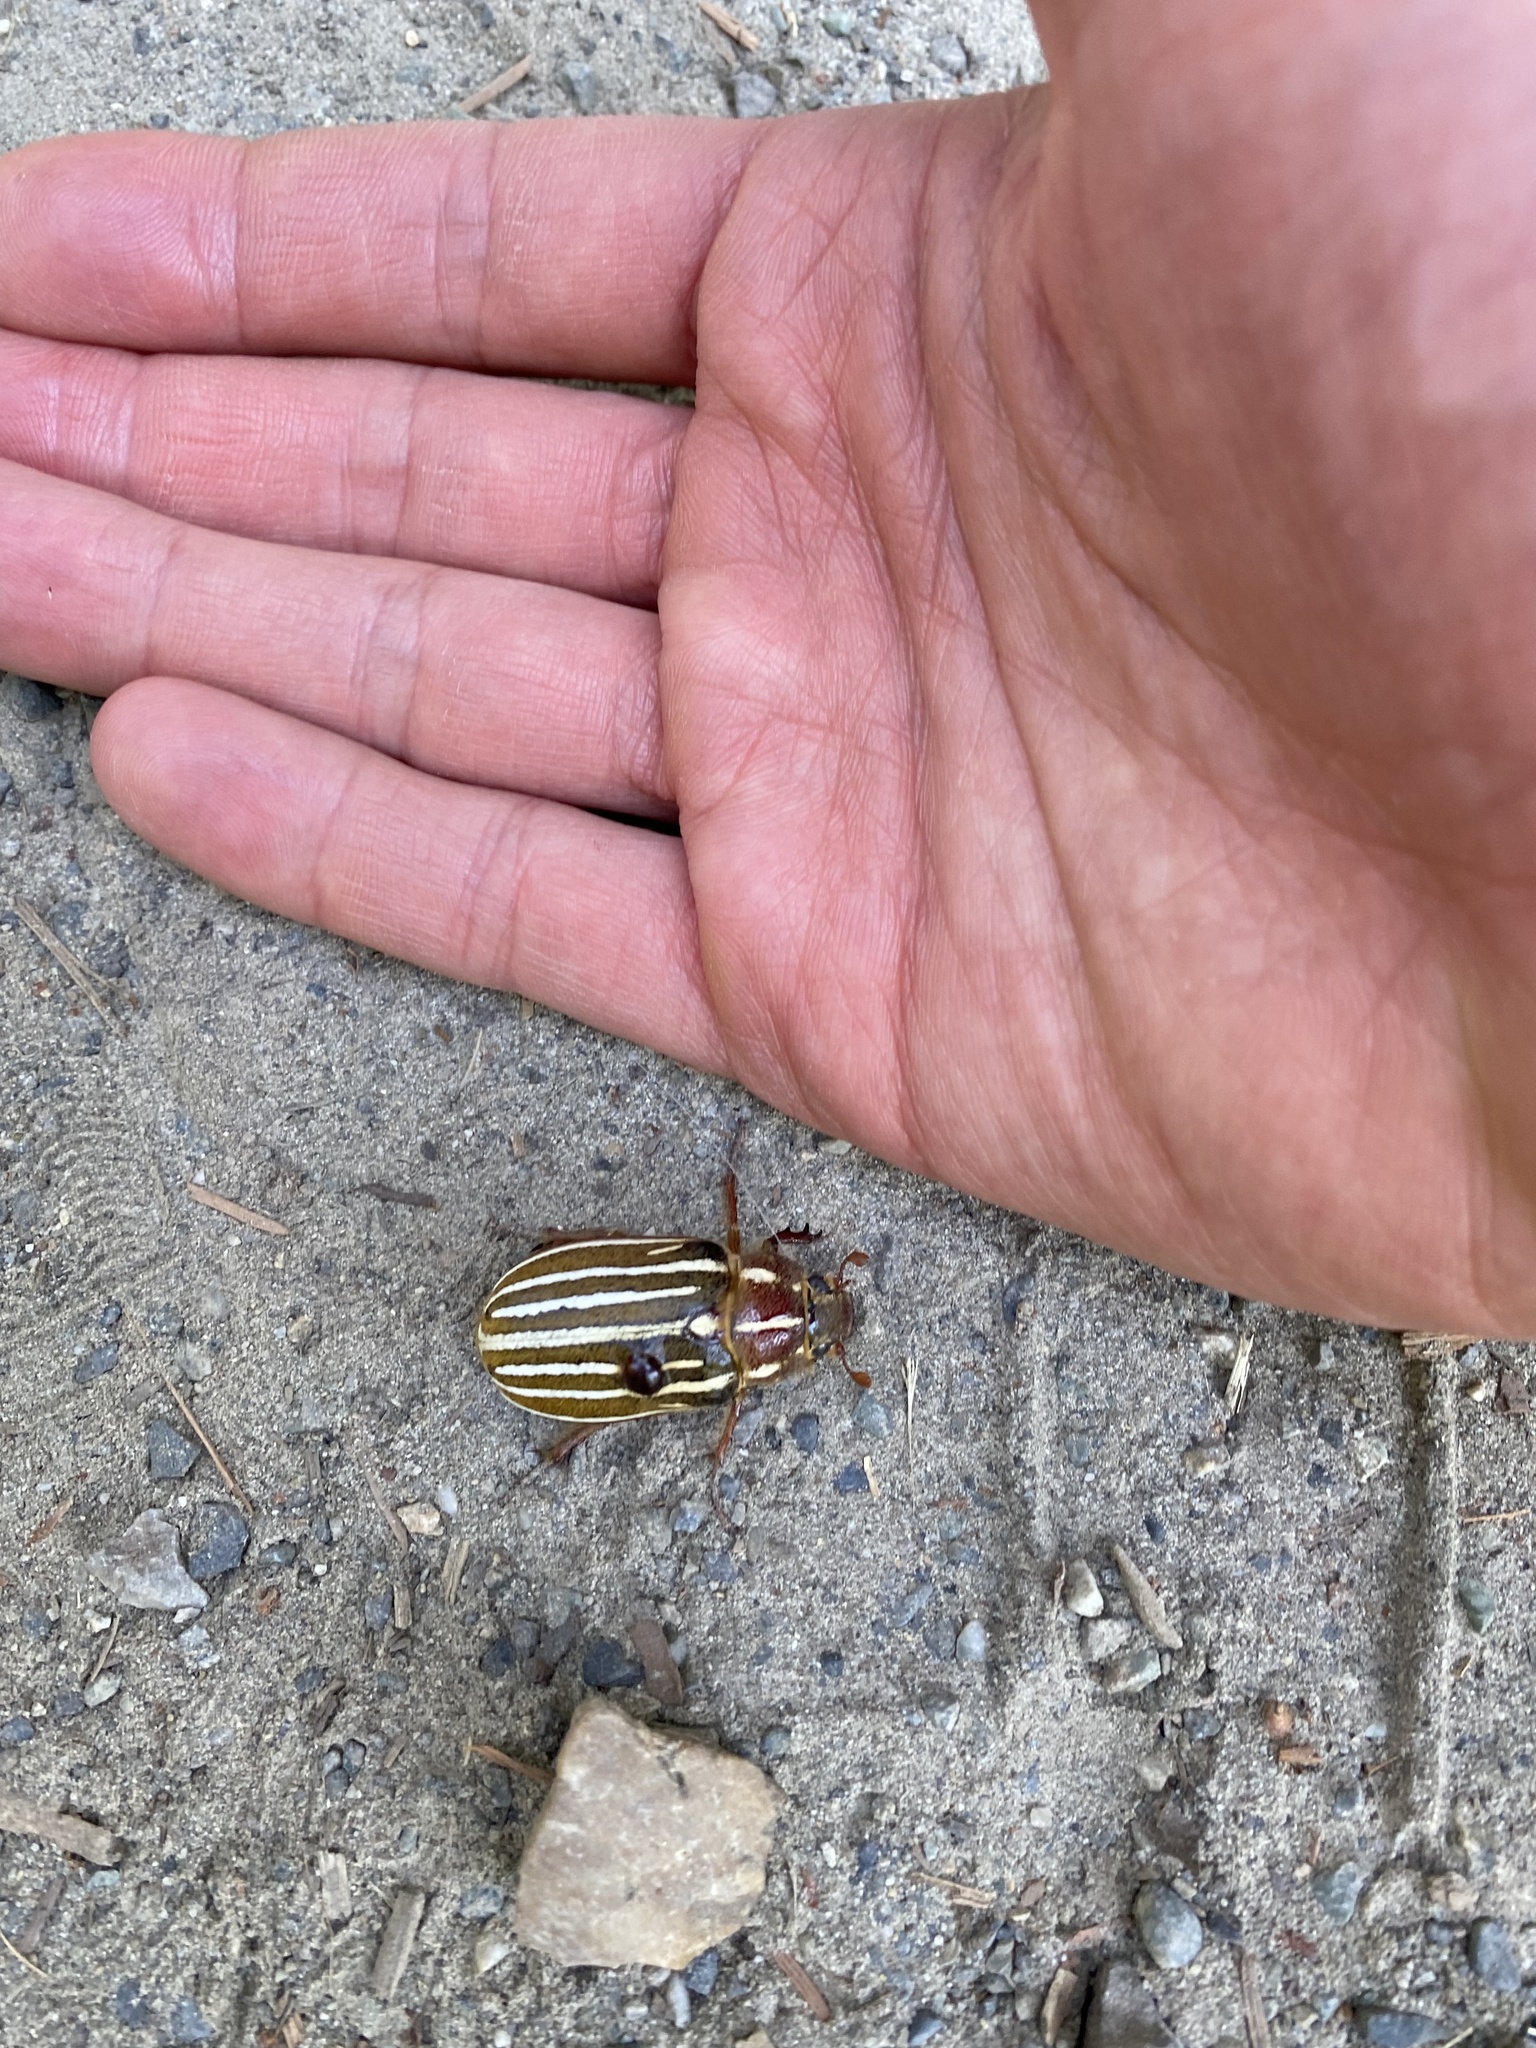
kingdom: Animalia
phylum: Arthropoda
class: Insecta
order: Coleoptera
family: Scarabaeidae
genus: Polyphylla
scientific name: Polyphylla crinita
